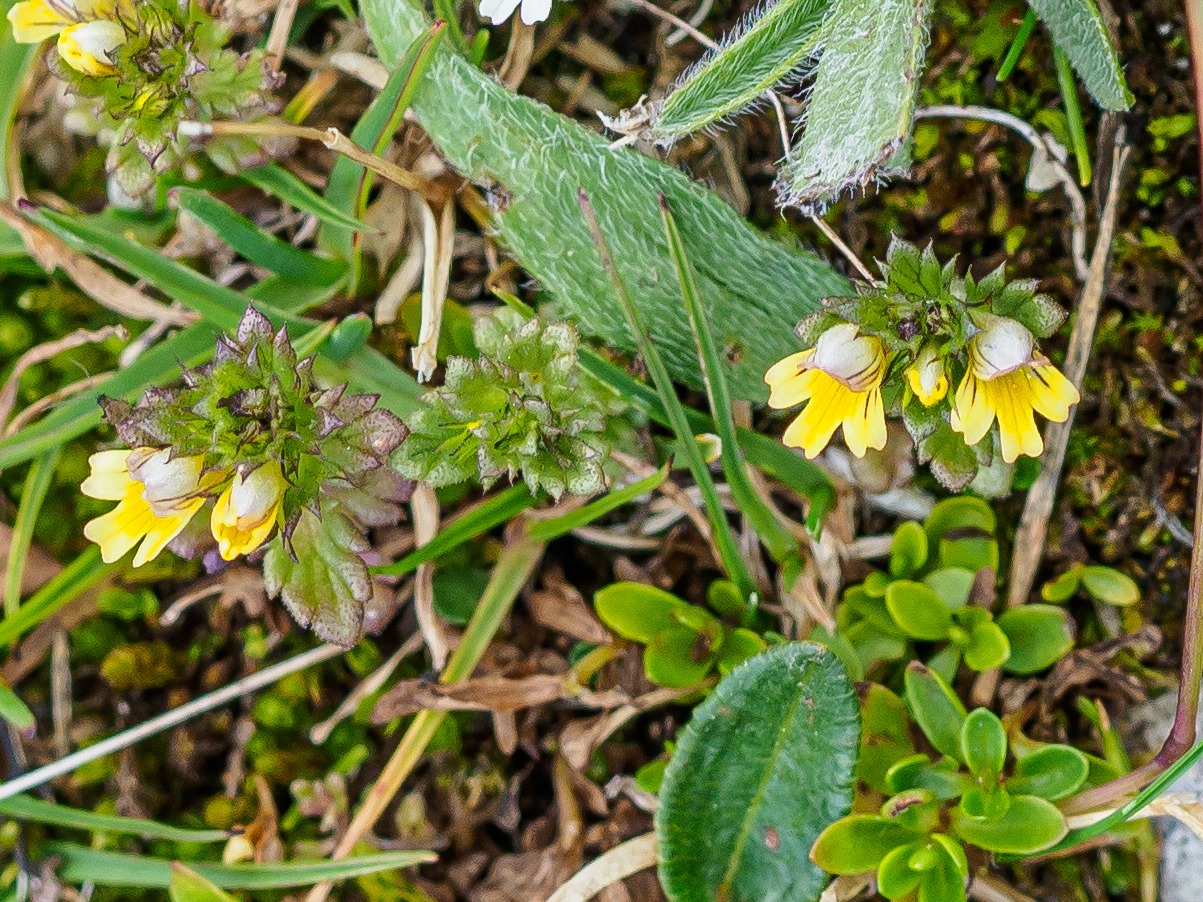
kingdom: Plantae
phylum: Tracheophyta
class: Magnoliopsida
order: Lamiales
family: Orobanchaceae
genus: Euphrasia
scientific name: Euphrasia minima
